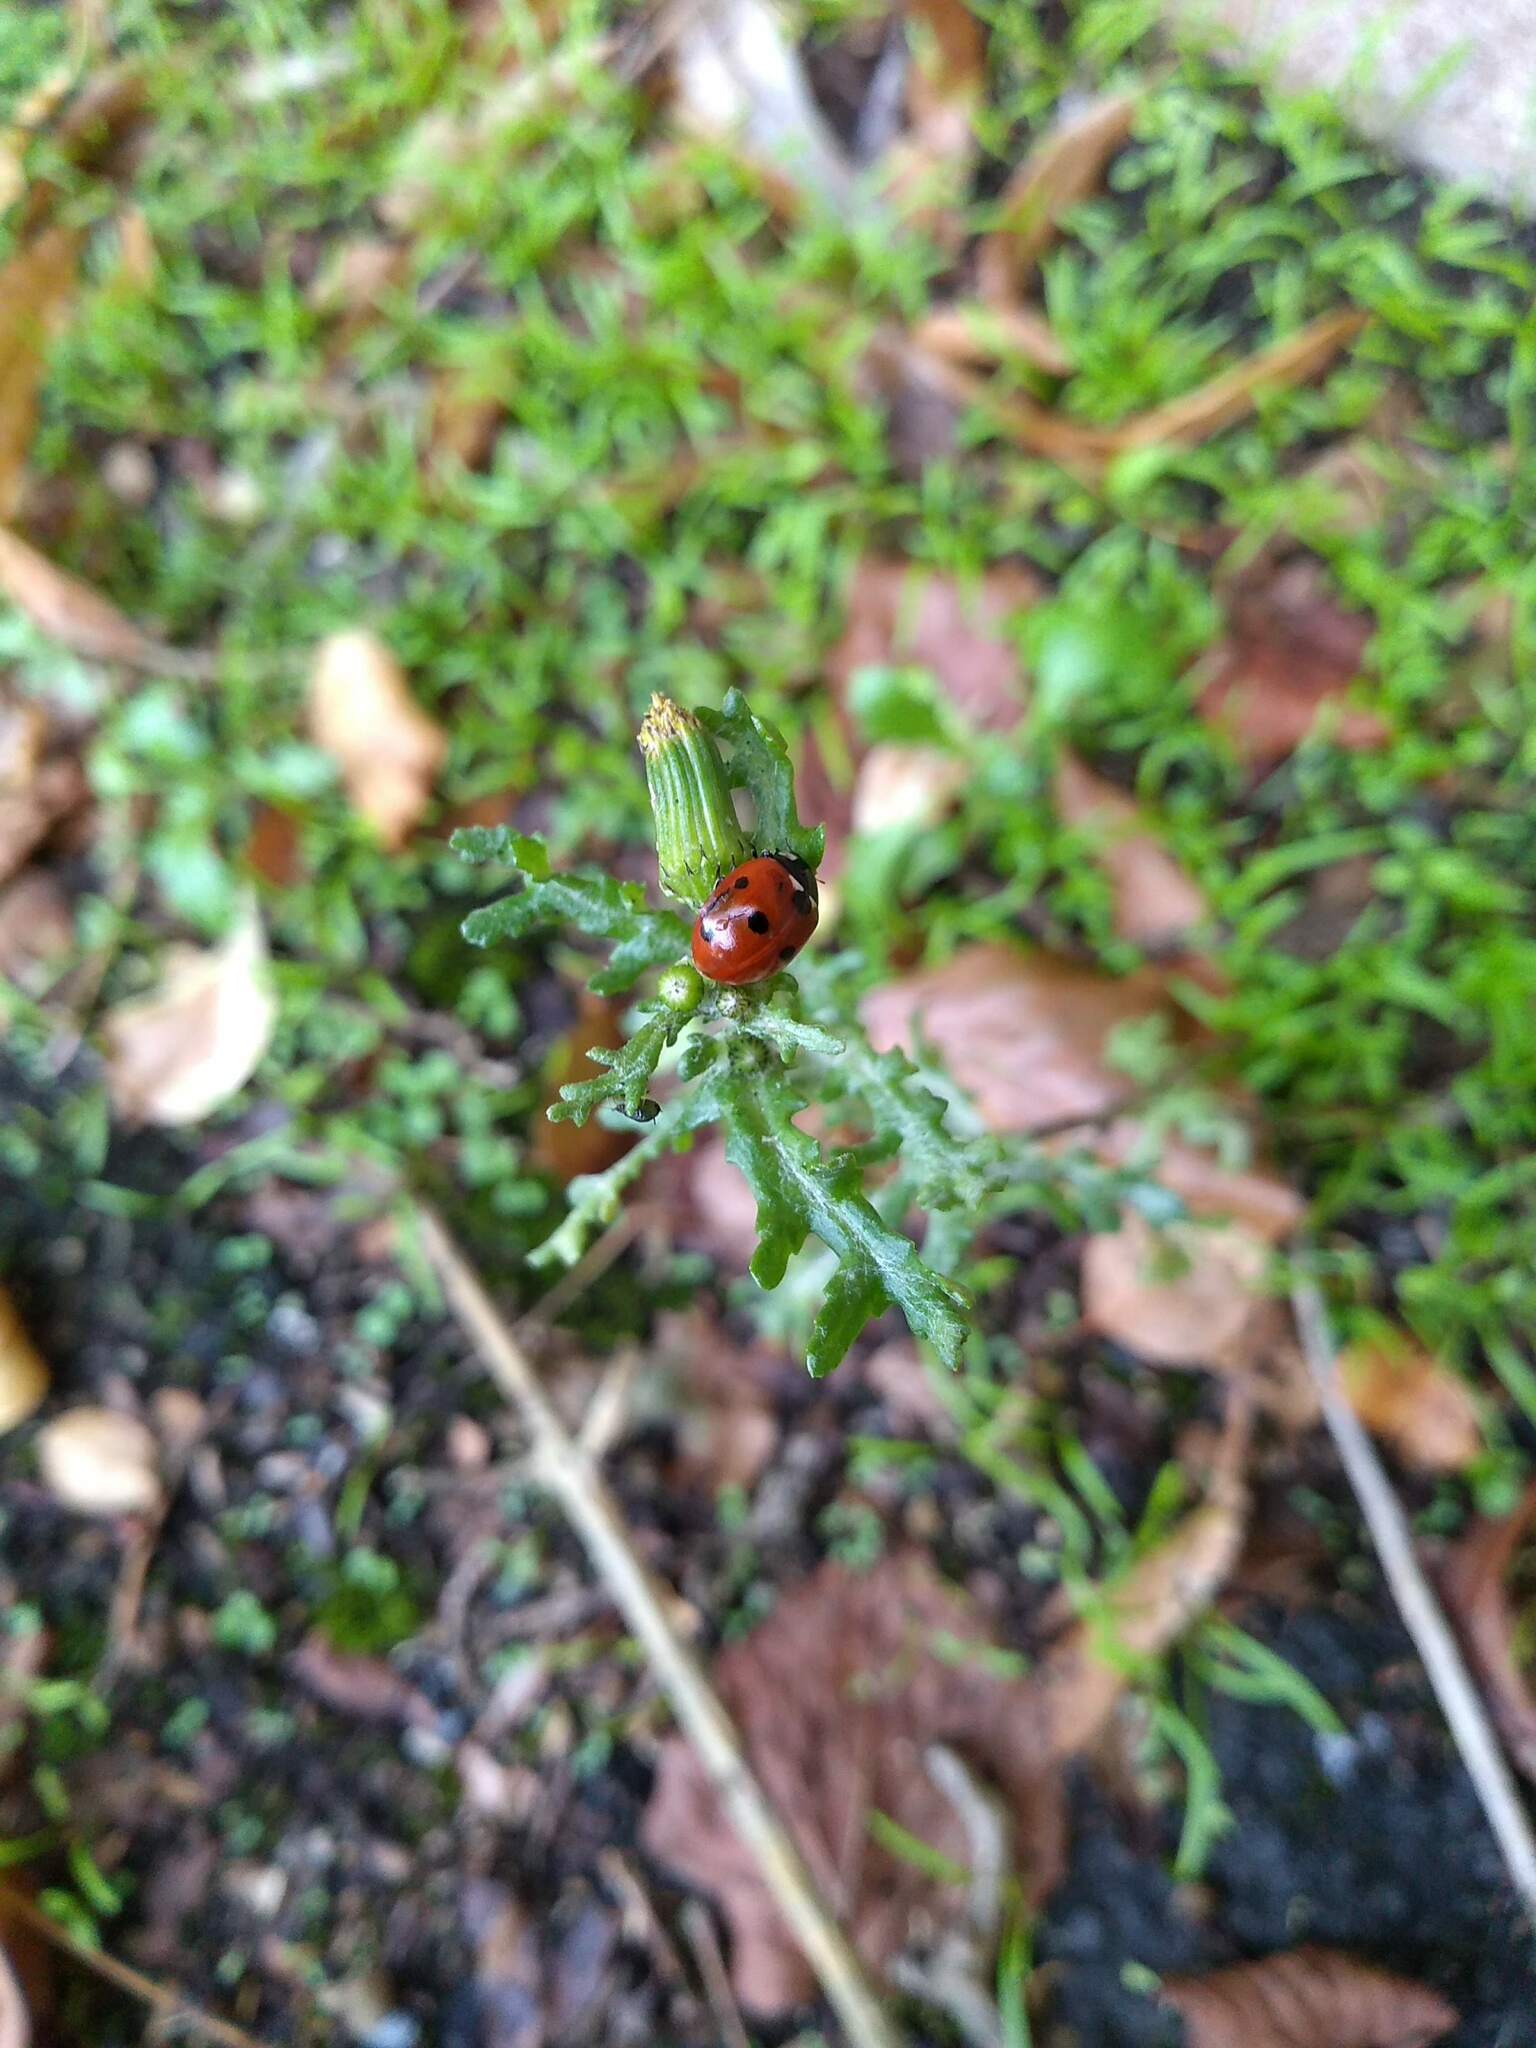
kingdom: Animalia
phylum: Arthropoda
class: Insecta
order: Coleoptera
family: Coccinellidae
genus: Coccinella
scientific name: Coccinella septempunctata
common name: Sevenspotted lady beetle
